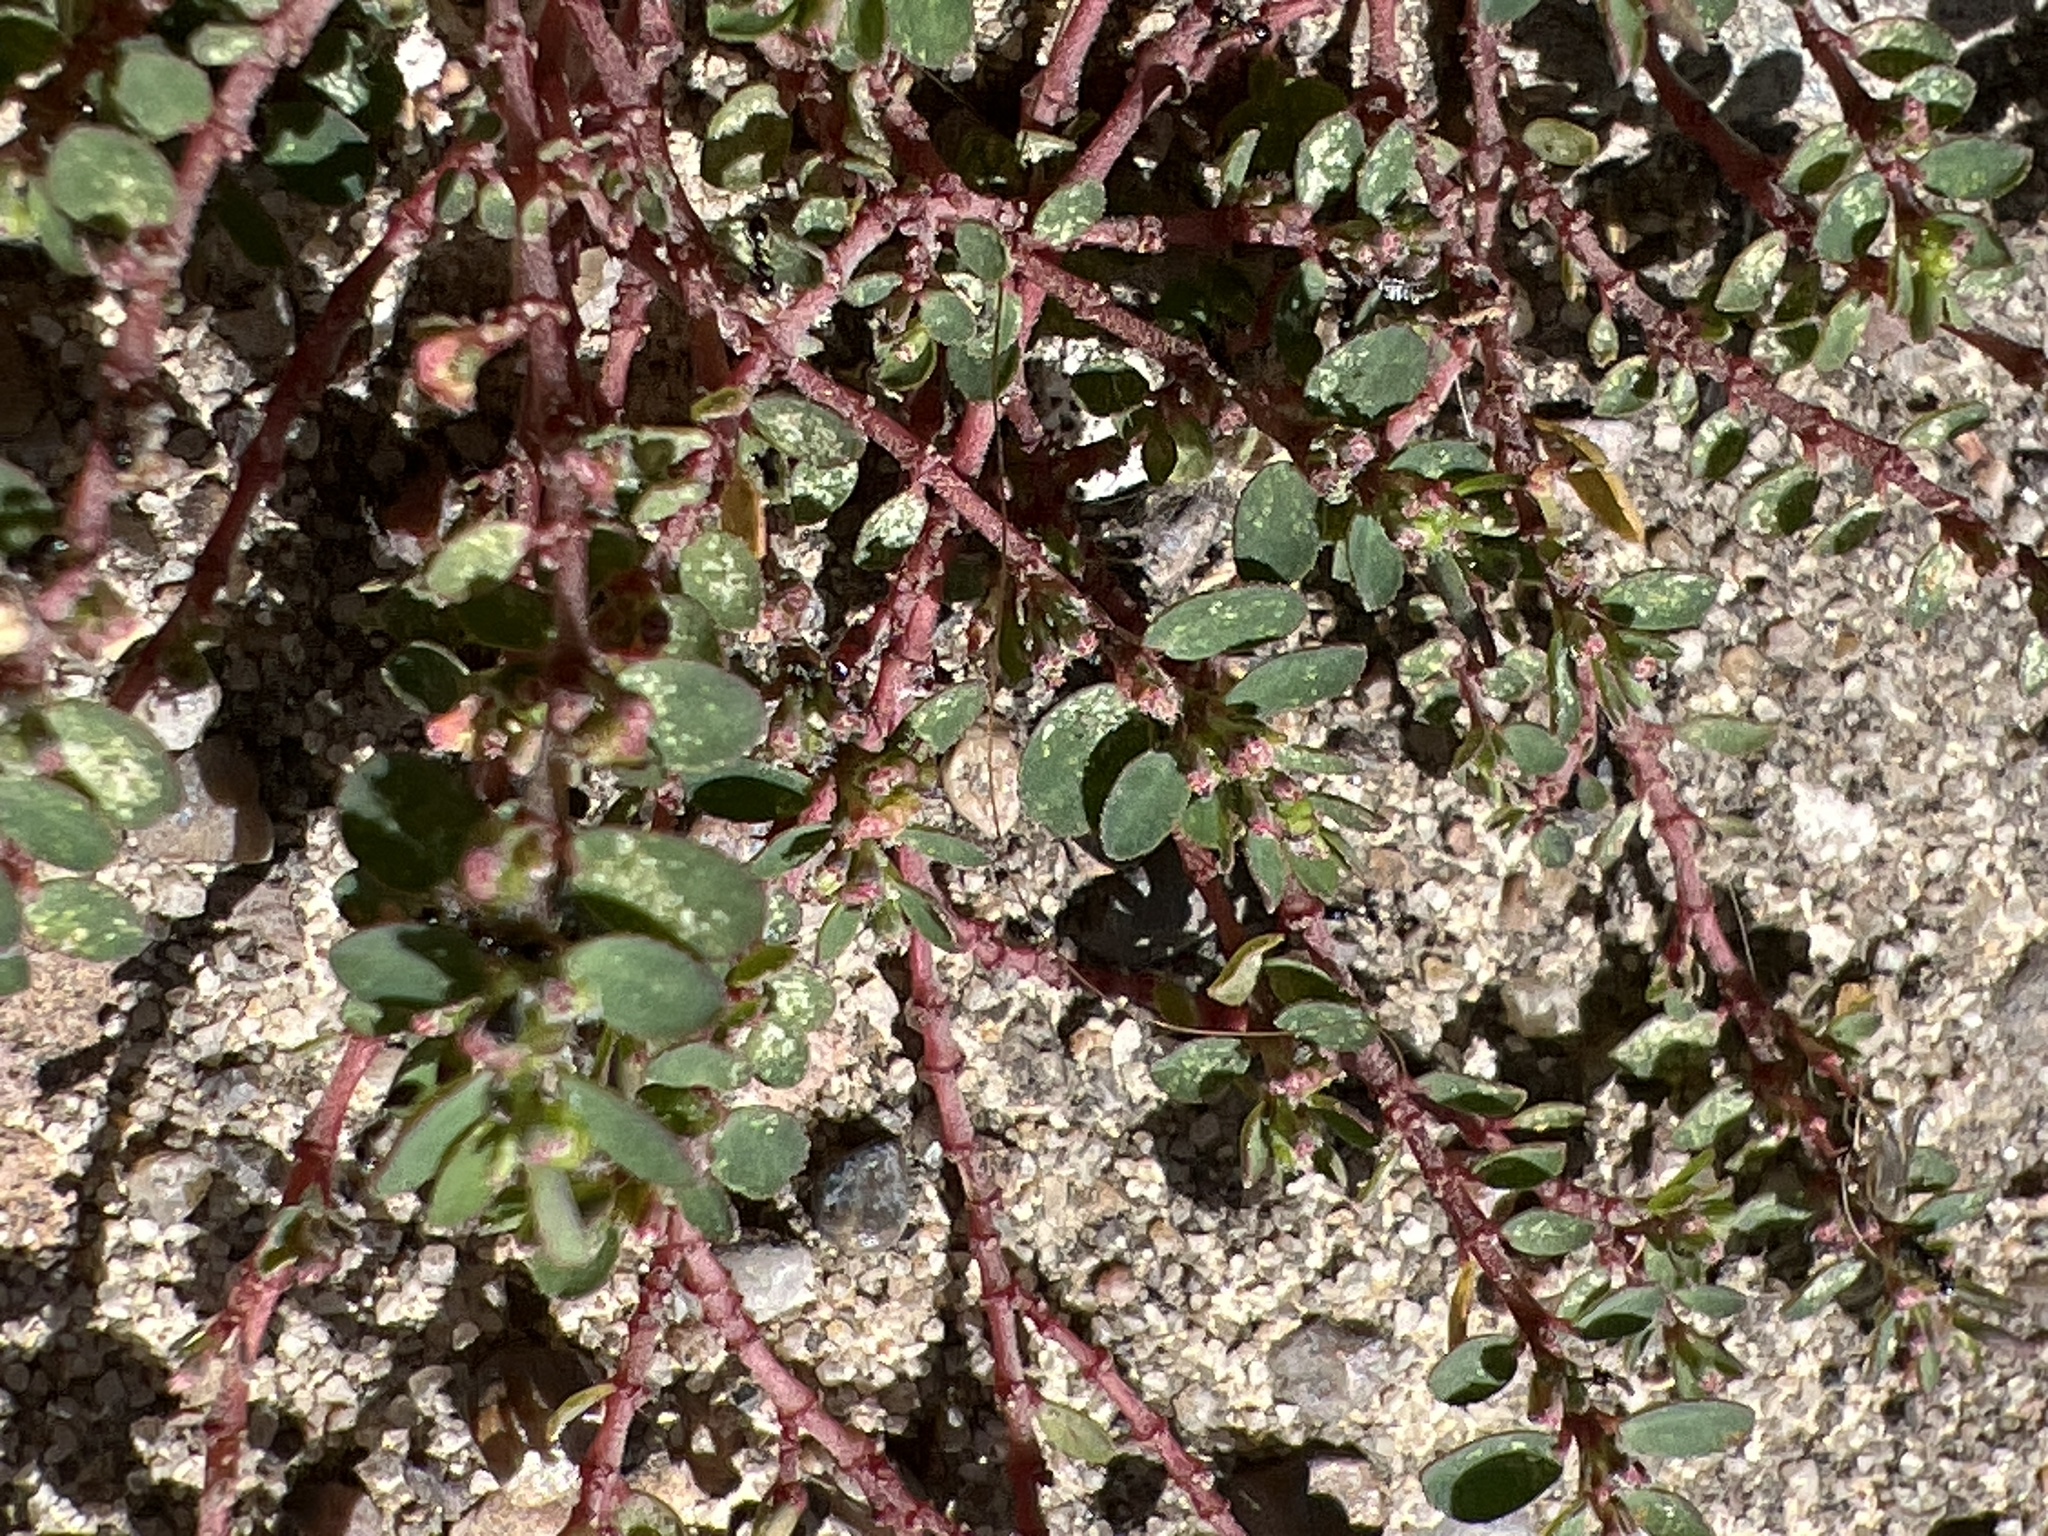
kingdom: Plantae
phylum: Tracheophyta
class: Magnoliopsida
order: Malpighiales
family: Euphorbiaceae
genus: Euphorbia
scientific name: Euphorbia prostrata
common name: Prostrate sandmat
